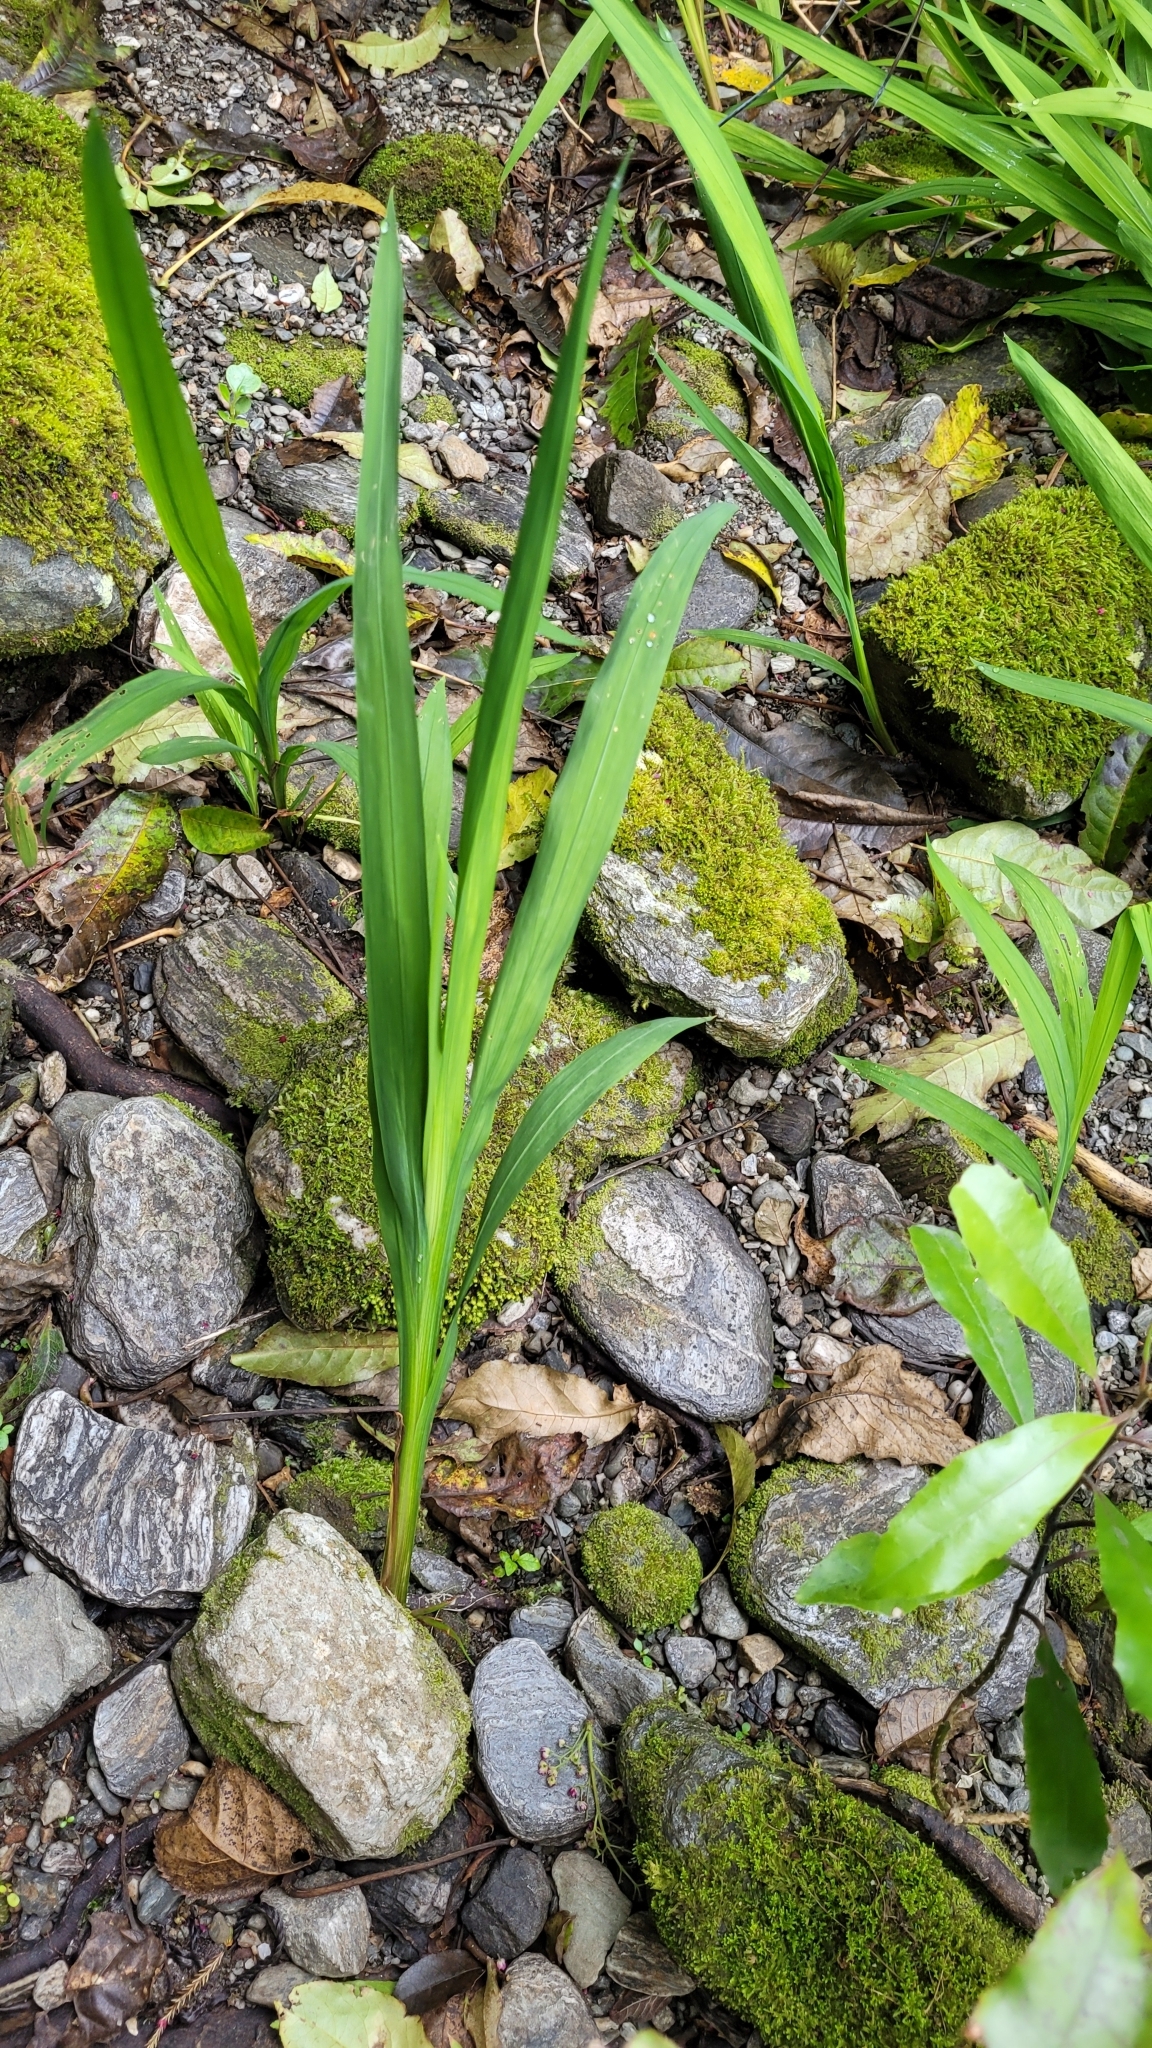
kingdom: Plantae
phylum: Tracheophyta
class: Liliopsida
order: Asparagales
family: Iridaceae
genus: Crocosmia
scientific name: Crocosmia crocosmiiflora
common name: Montbretia
